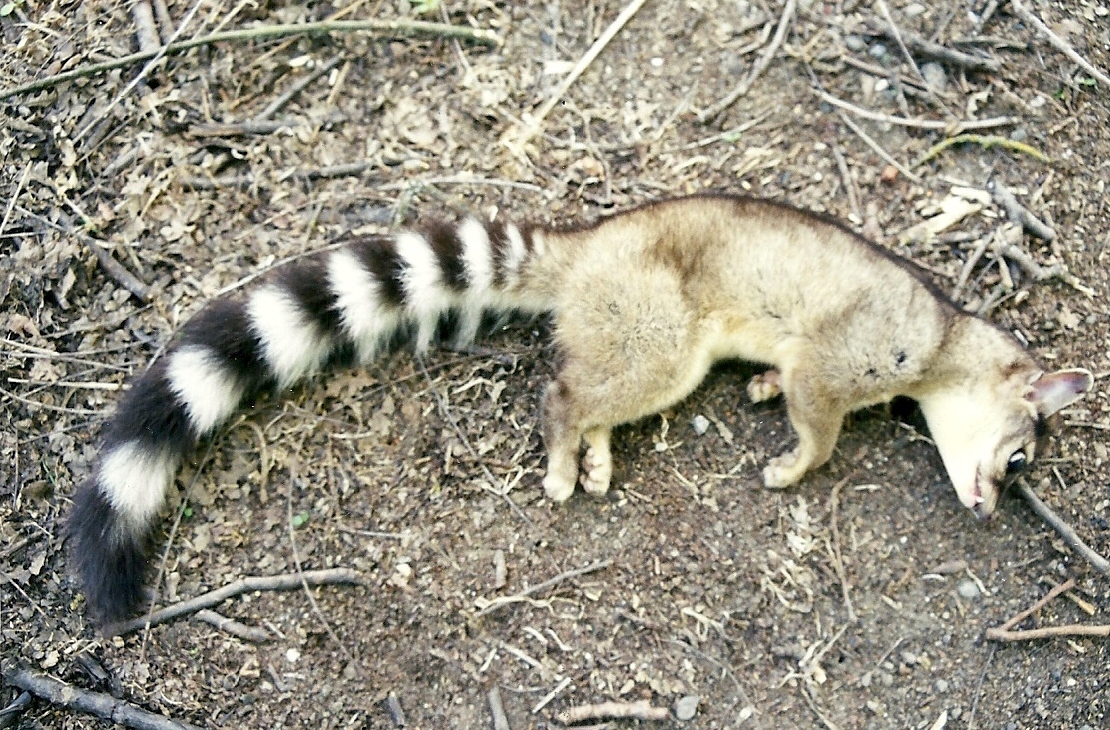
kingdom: Animalia
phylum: Chordata
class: Mammalia
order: Carnivora
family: Procyonidae
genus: Bassariscus
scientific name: Bassariscus astutus
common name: Ringtail
